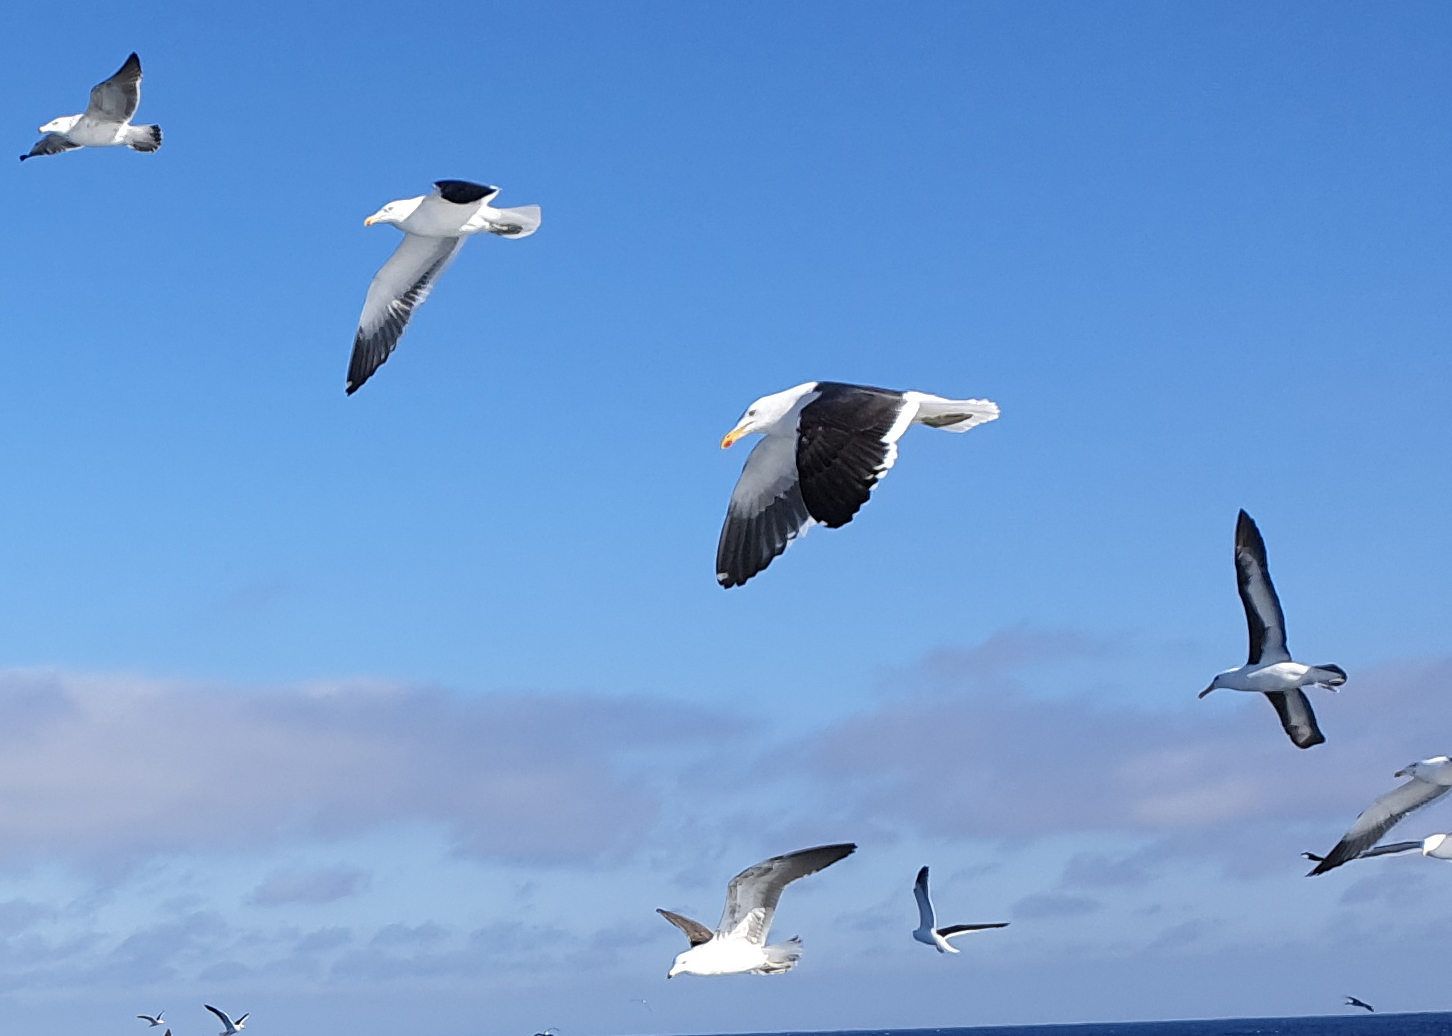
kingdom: Animalia
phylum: Chordata
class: Aves
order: Charadriiformes
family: Laridae
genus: Larus
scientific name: Larus dominicanus
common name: Kelp gull
